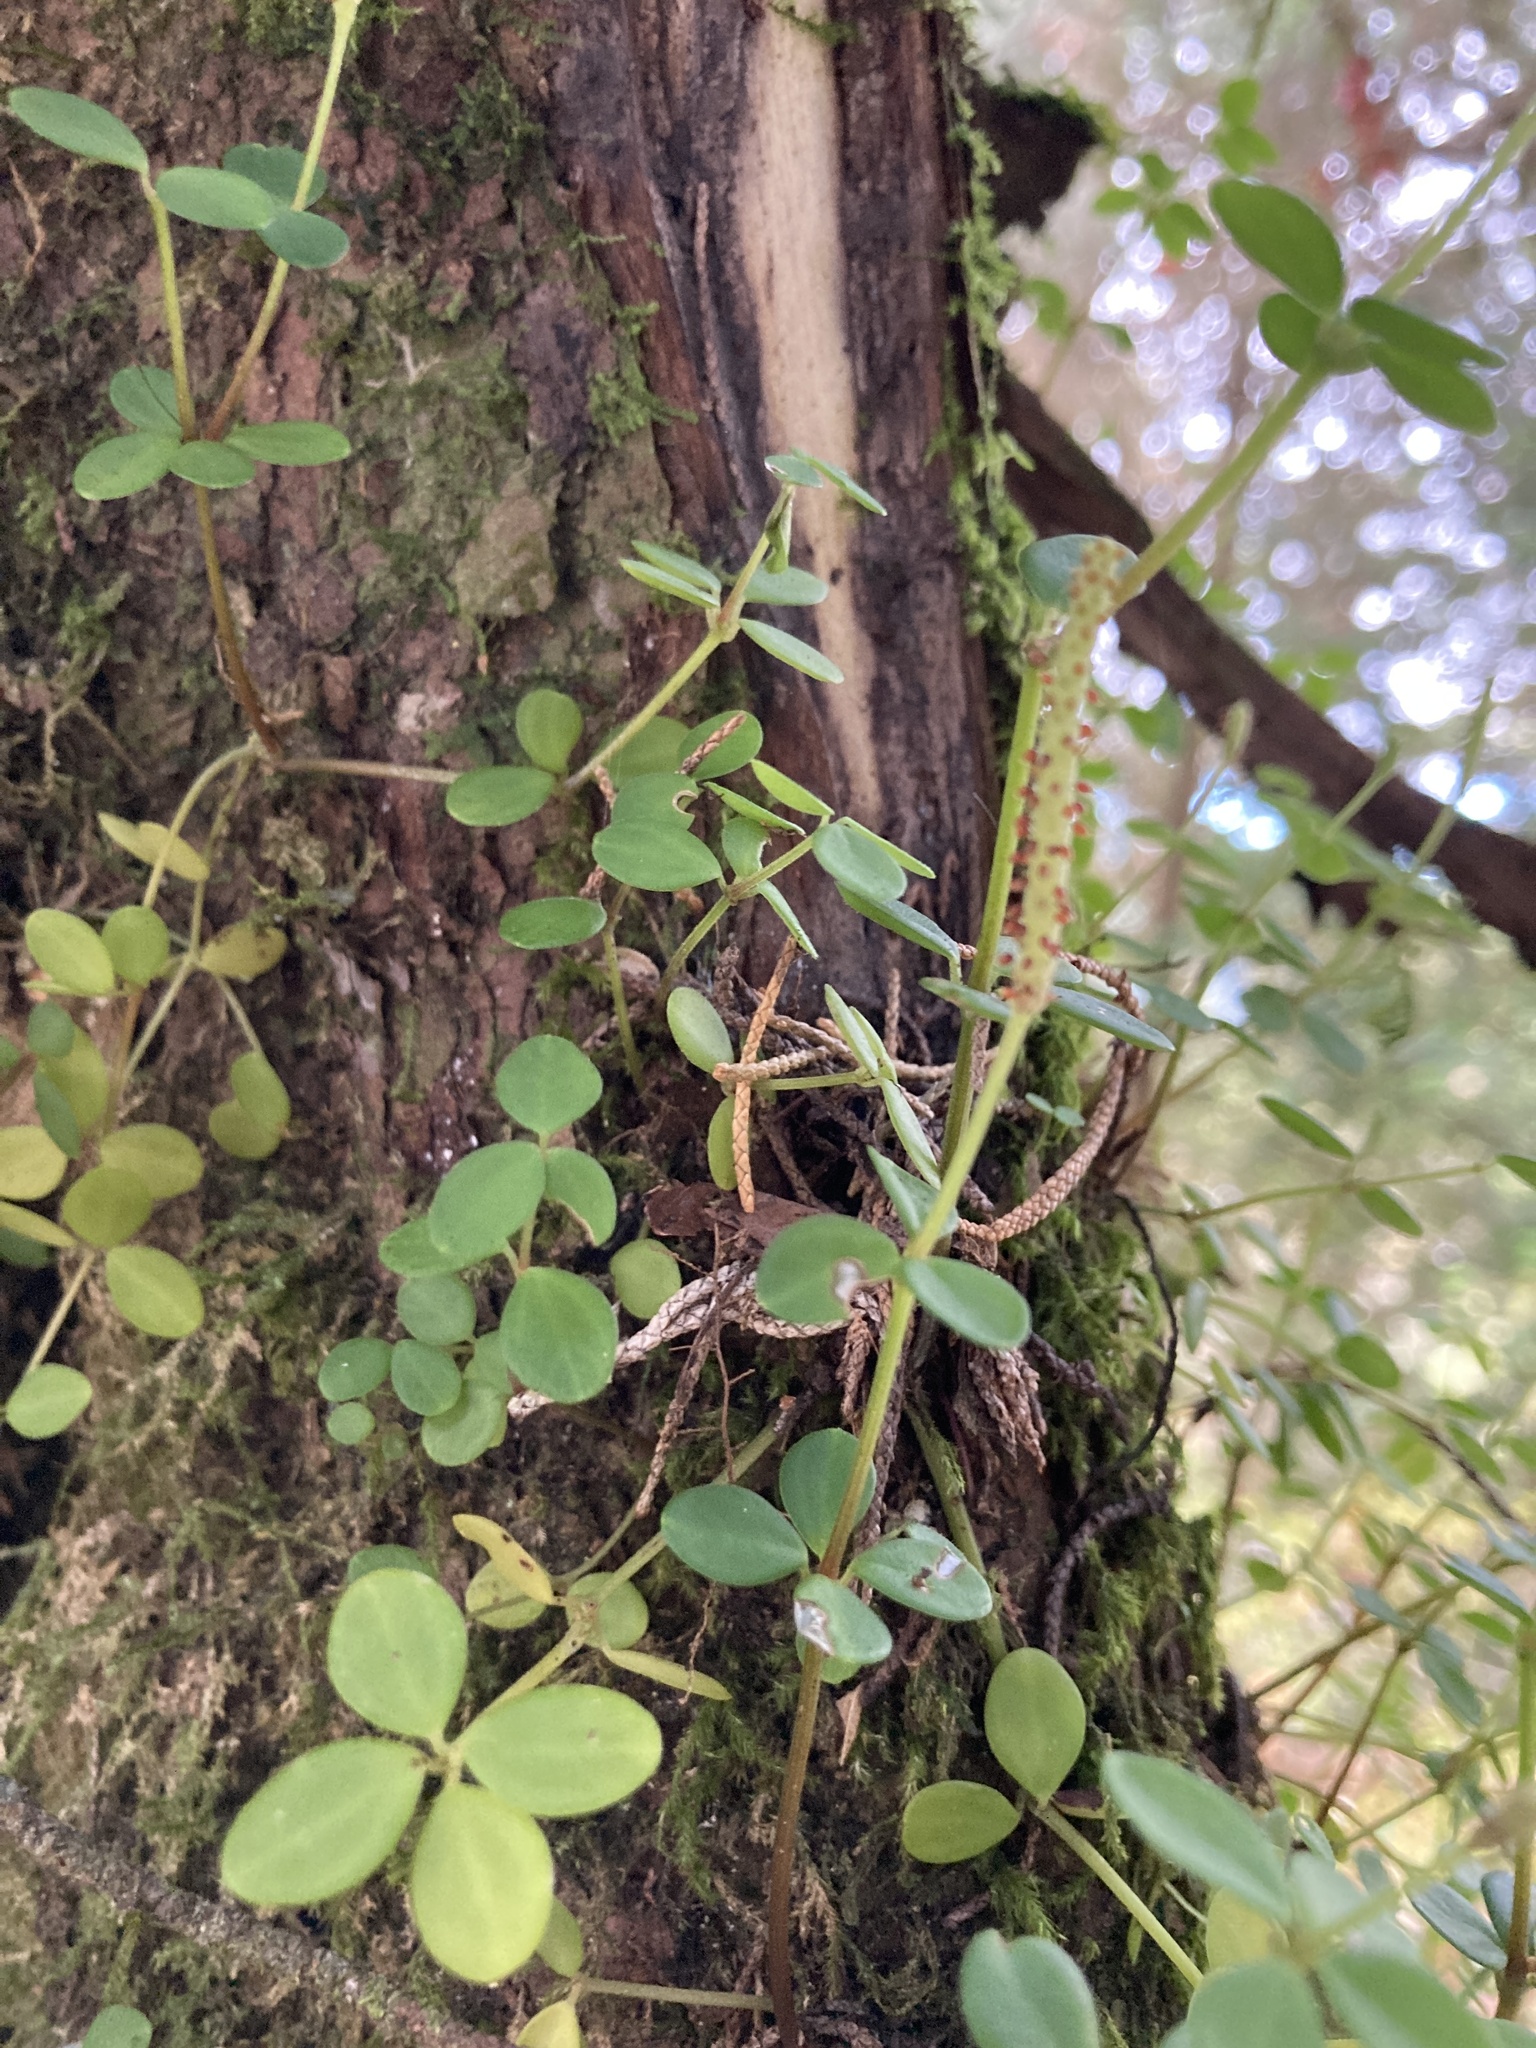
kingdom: Plantae
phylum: Tracheophyta
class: Magnoliopsida
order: Piperales
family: Piperaceae
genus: Peperomia
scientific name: Peperomia tetraphylla
